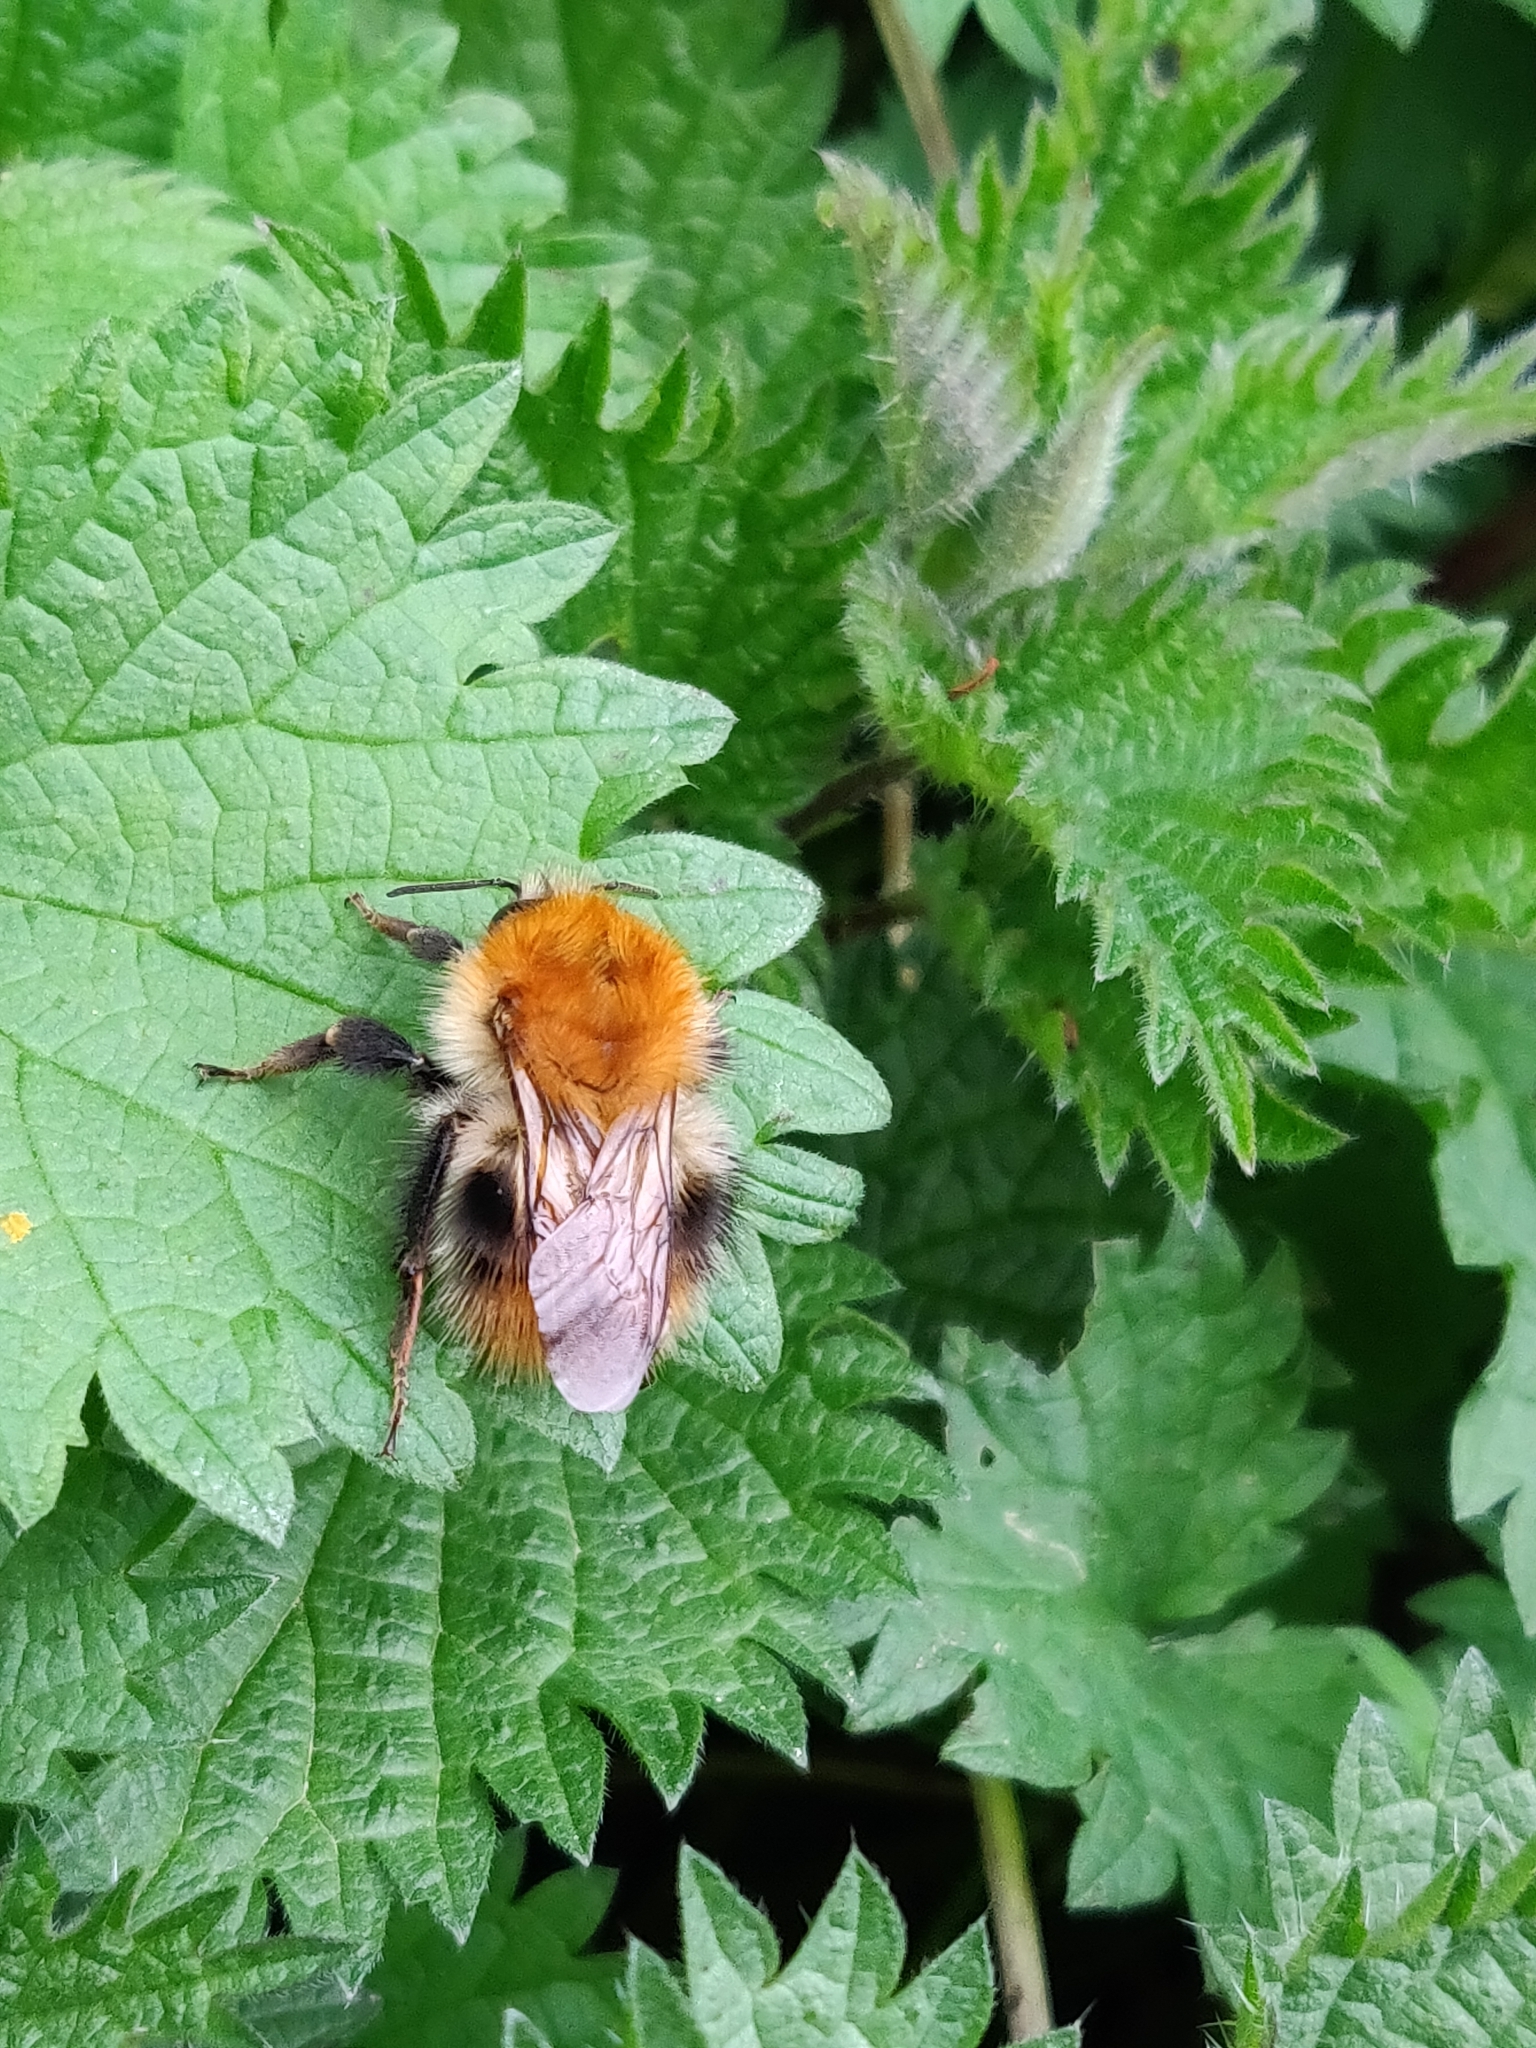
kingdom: Animalia
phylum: Arthropoda
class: Insecta
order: Hymenoptera
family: Apidae
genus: Bombus
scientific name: Bombus pascuorum
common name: Common carder bee
